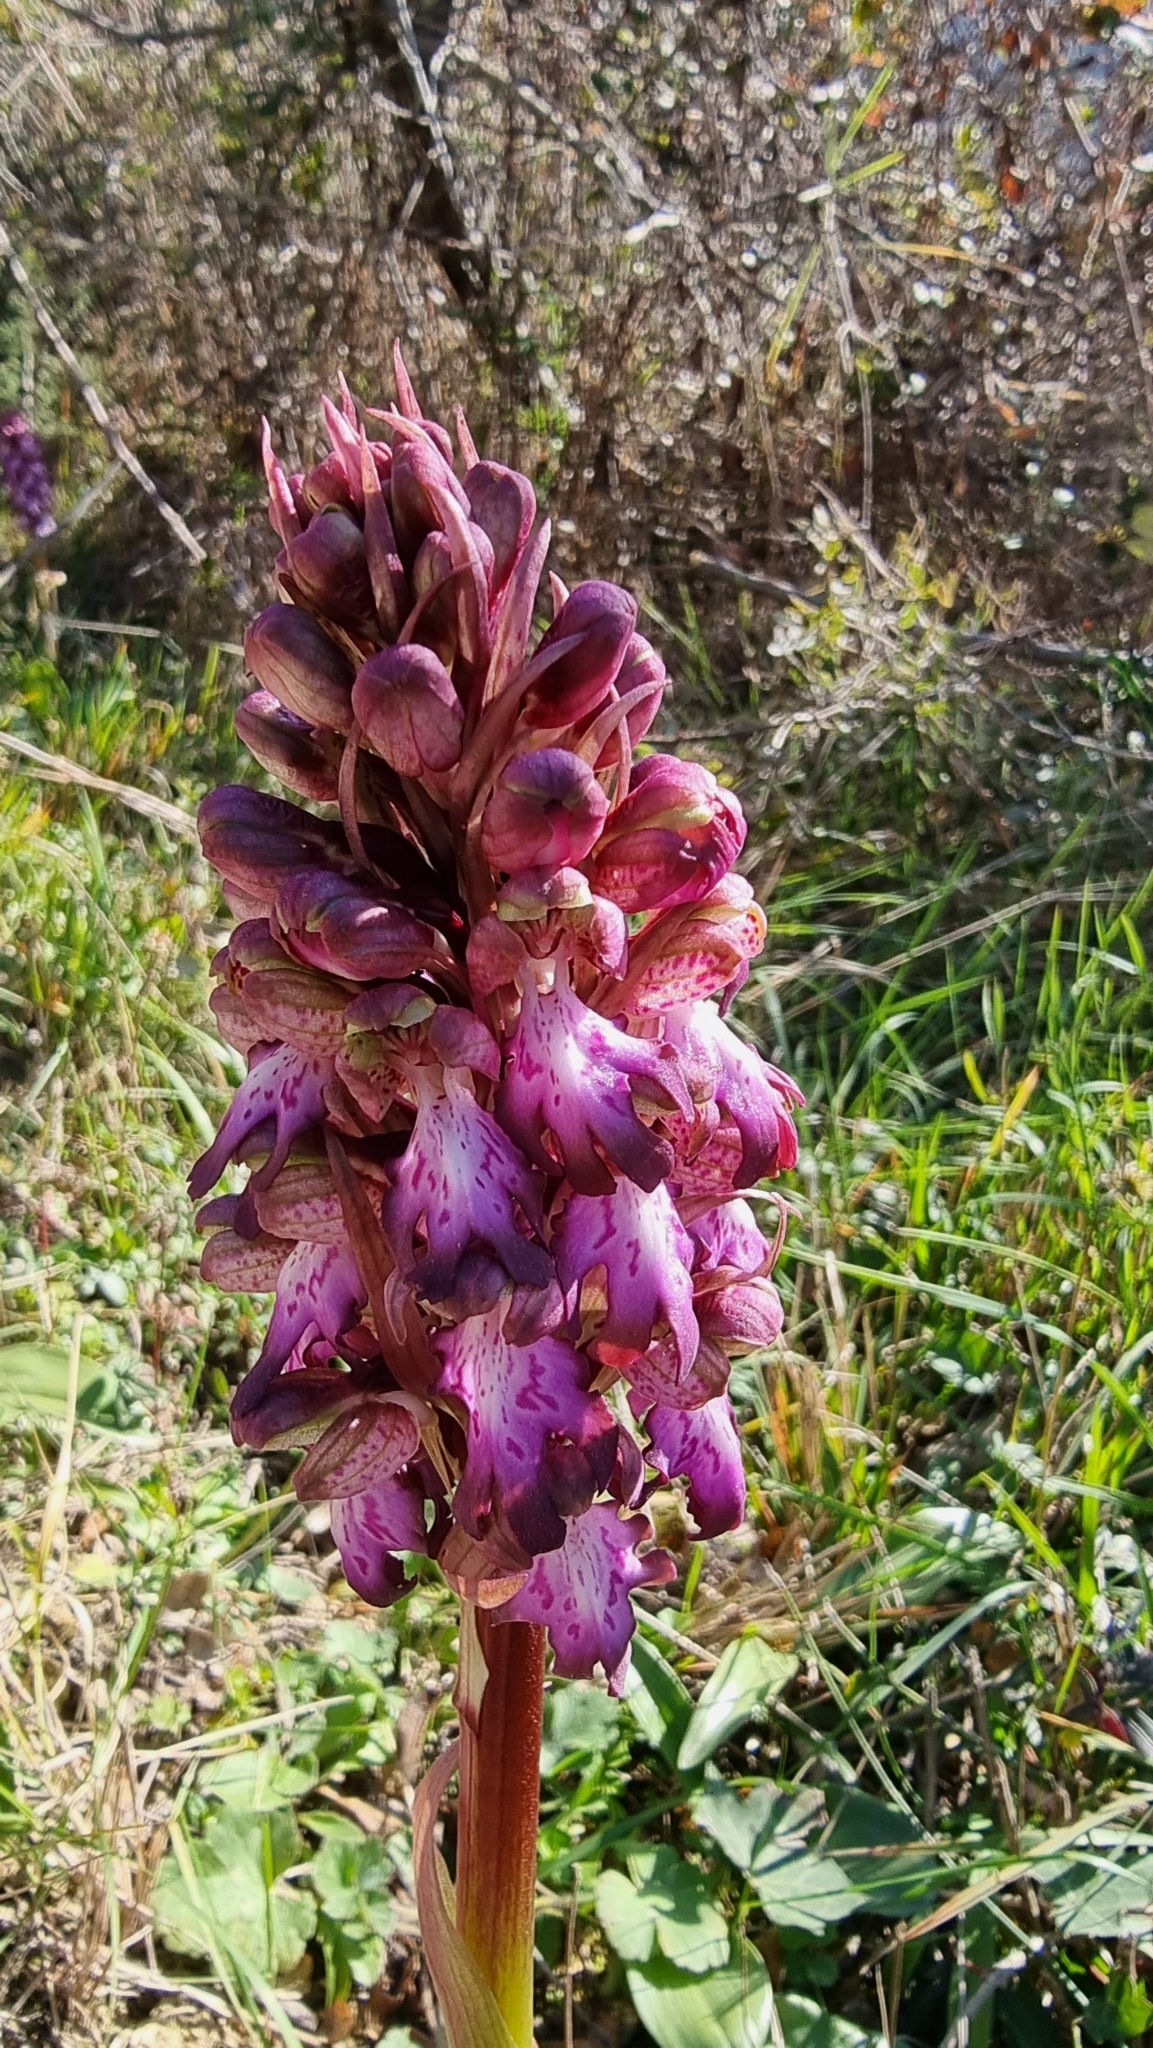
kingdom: Plantae
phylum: Tracheophyta
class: Liliopsida
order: Asparagales
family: Orchidaceae
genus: Himantoglossum
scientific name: Himantoglossum robertianum
